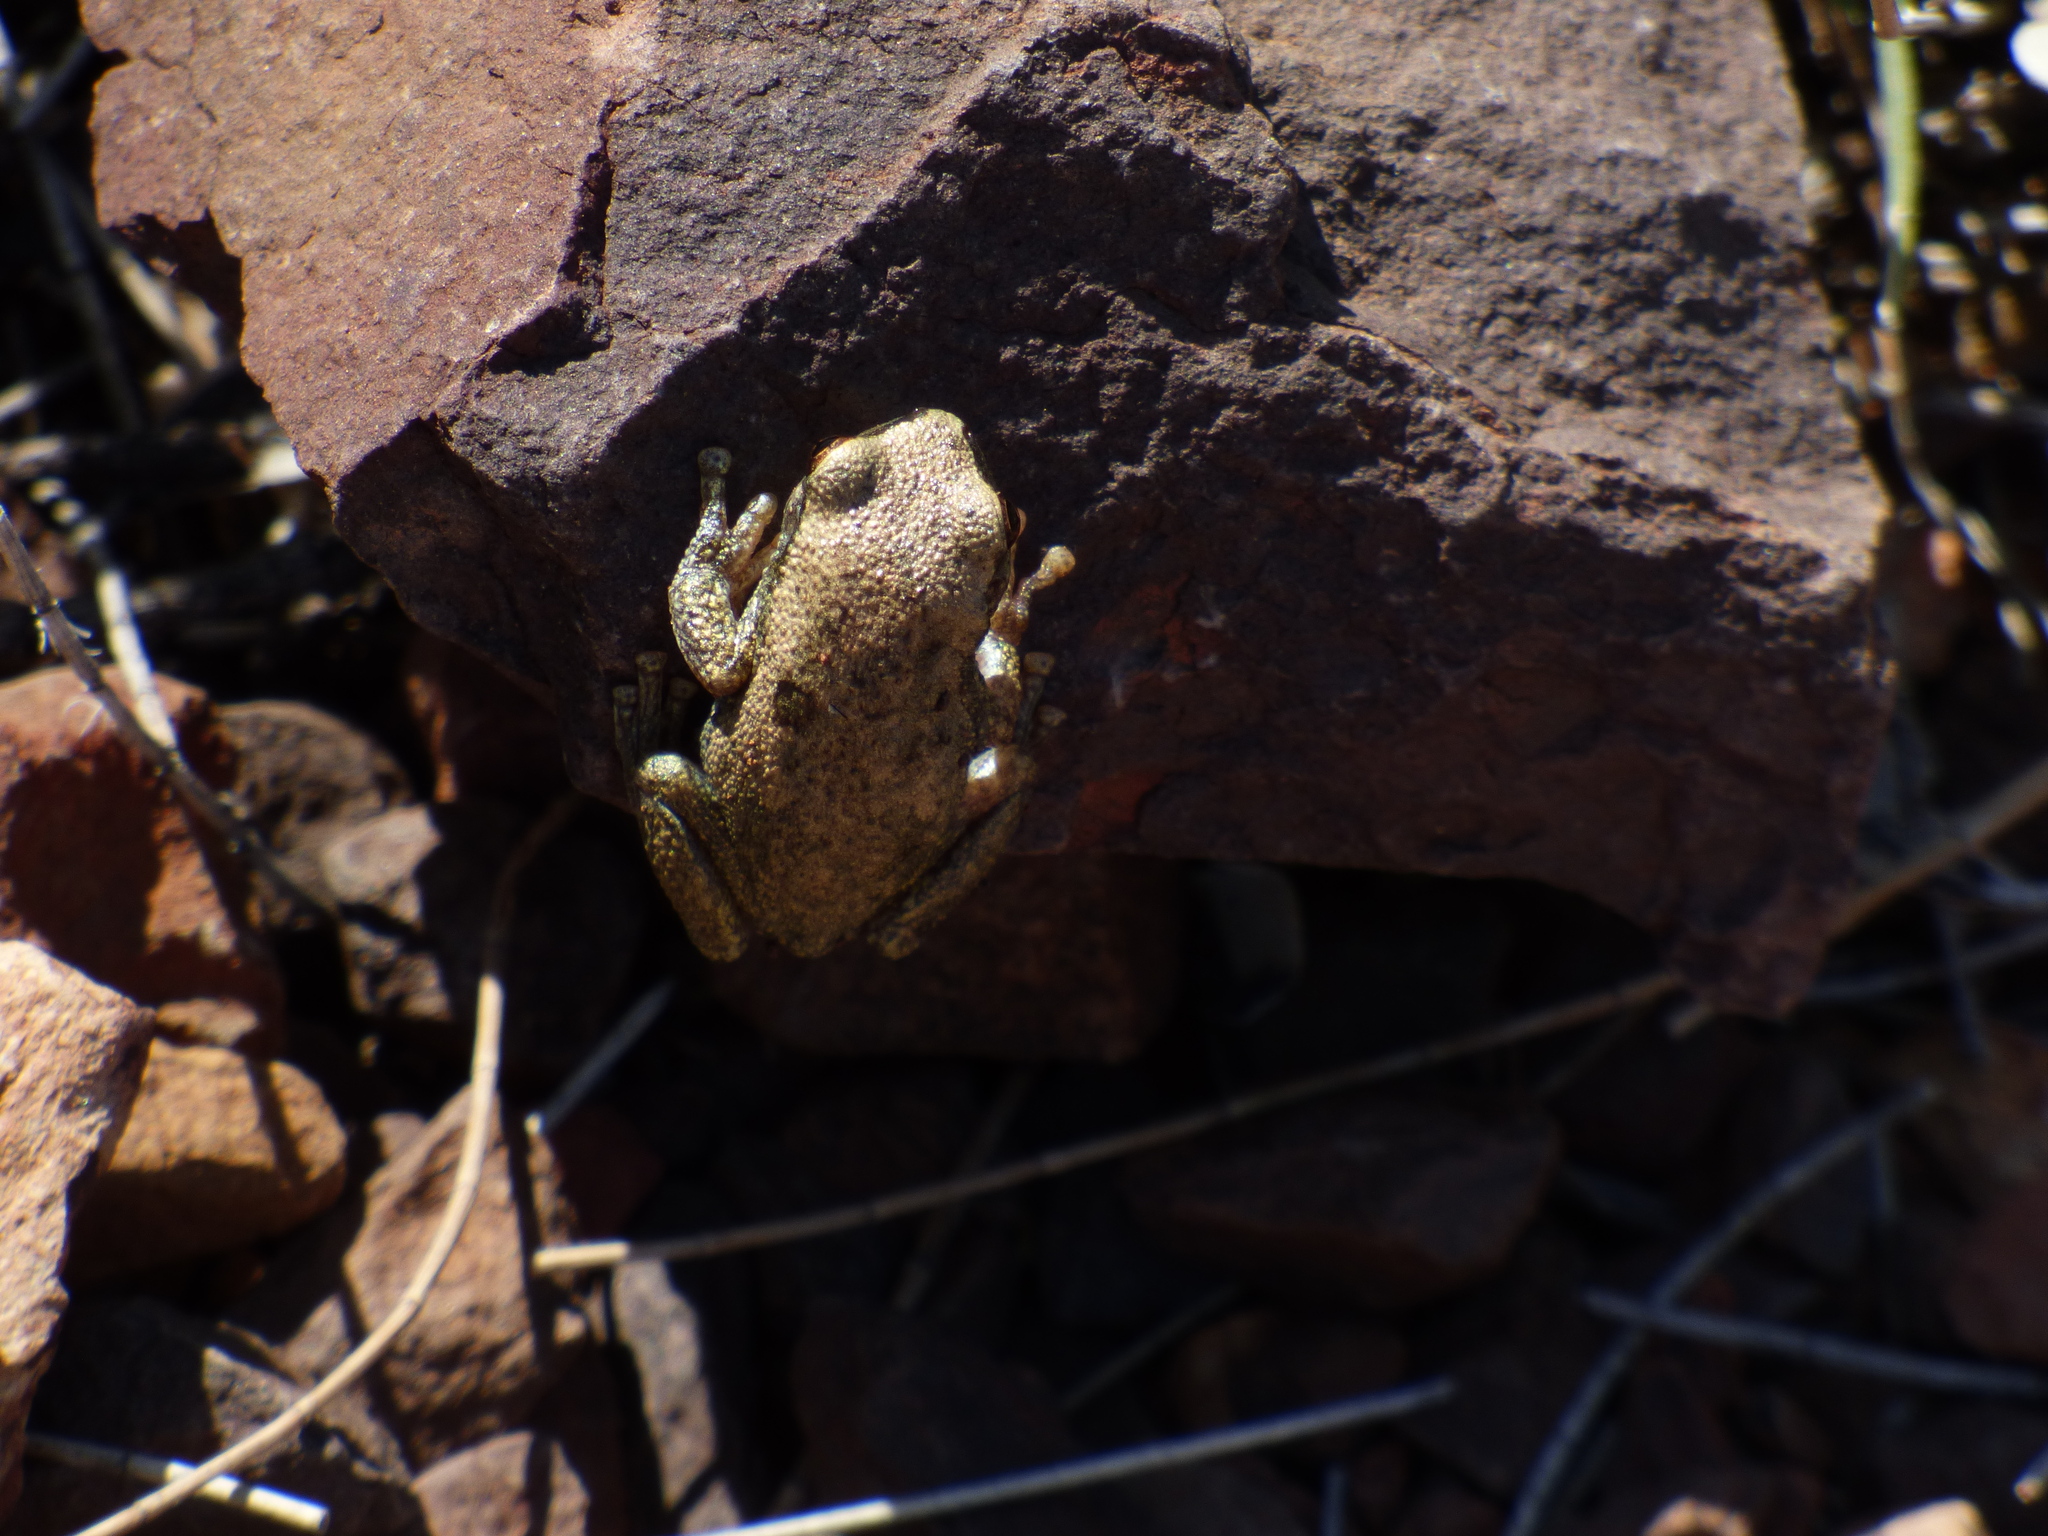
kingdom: Animalia
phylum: Chordata
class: Amphibia
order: Anura
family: Pelodryadidae
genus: Litoria
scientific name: Litoria rubella
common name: Desert tree frog
